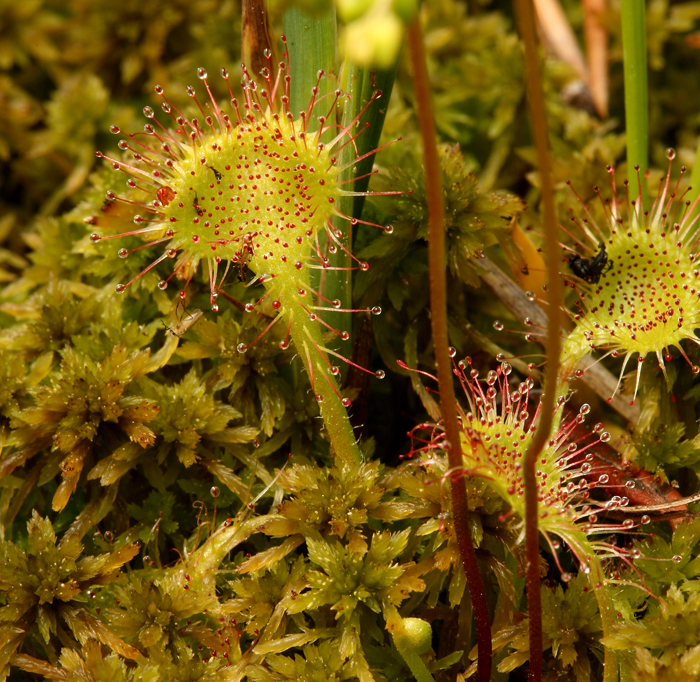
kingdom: Plantae
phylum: Tracheophyta
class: Magnoliopsida
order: Caryophyllales
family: Droseraceae
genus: Drosera
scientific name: Drosera rotundifolia
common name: Round-leaved sundew
